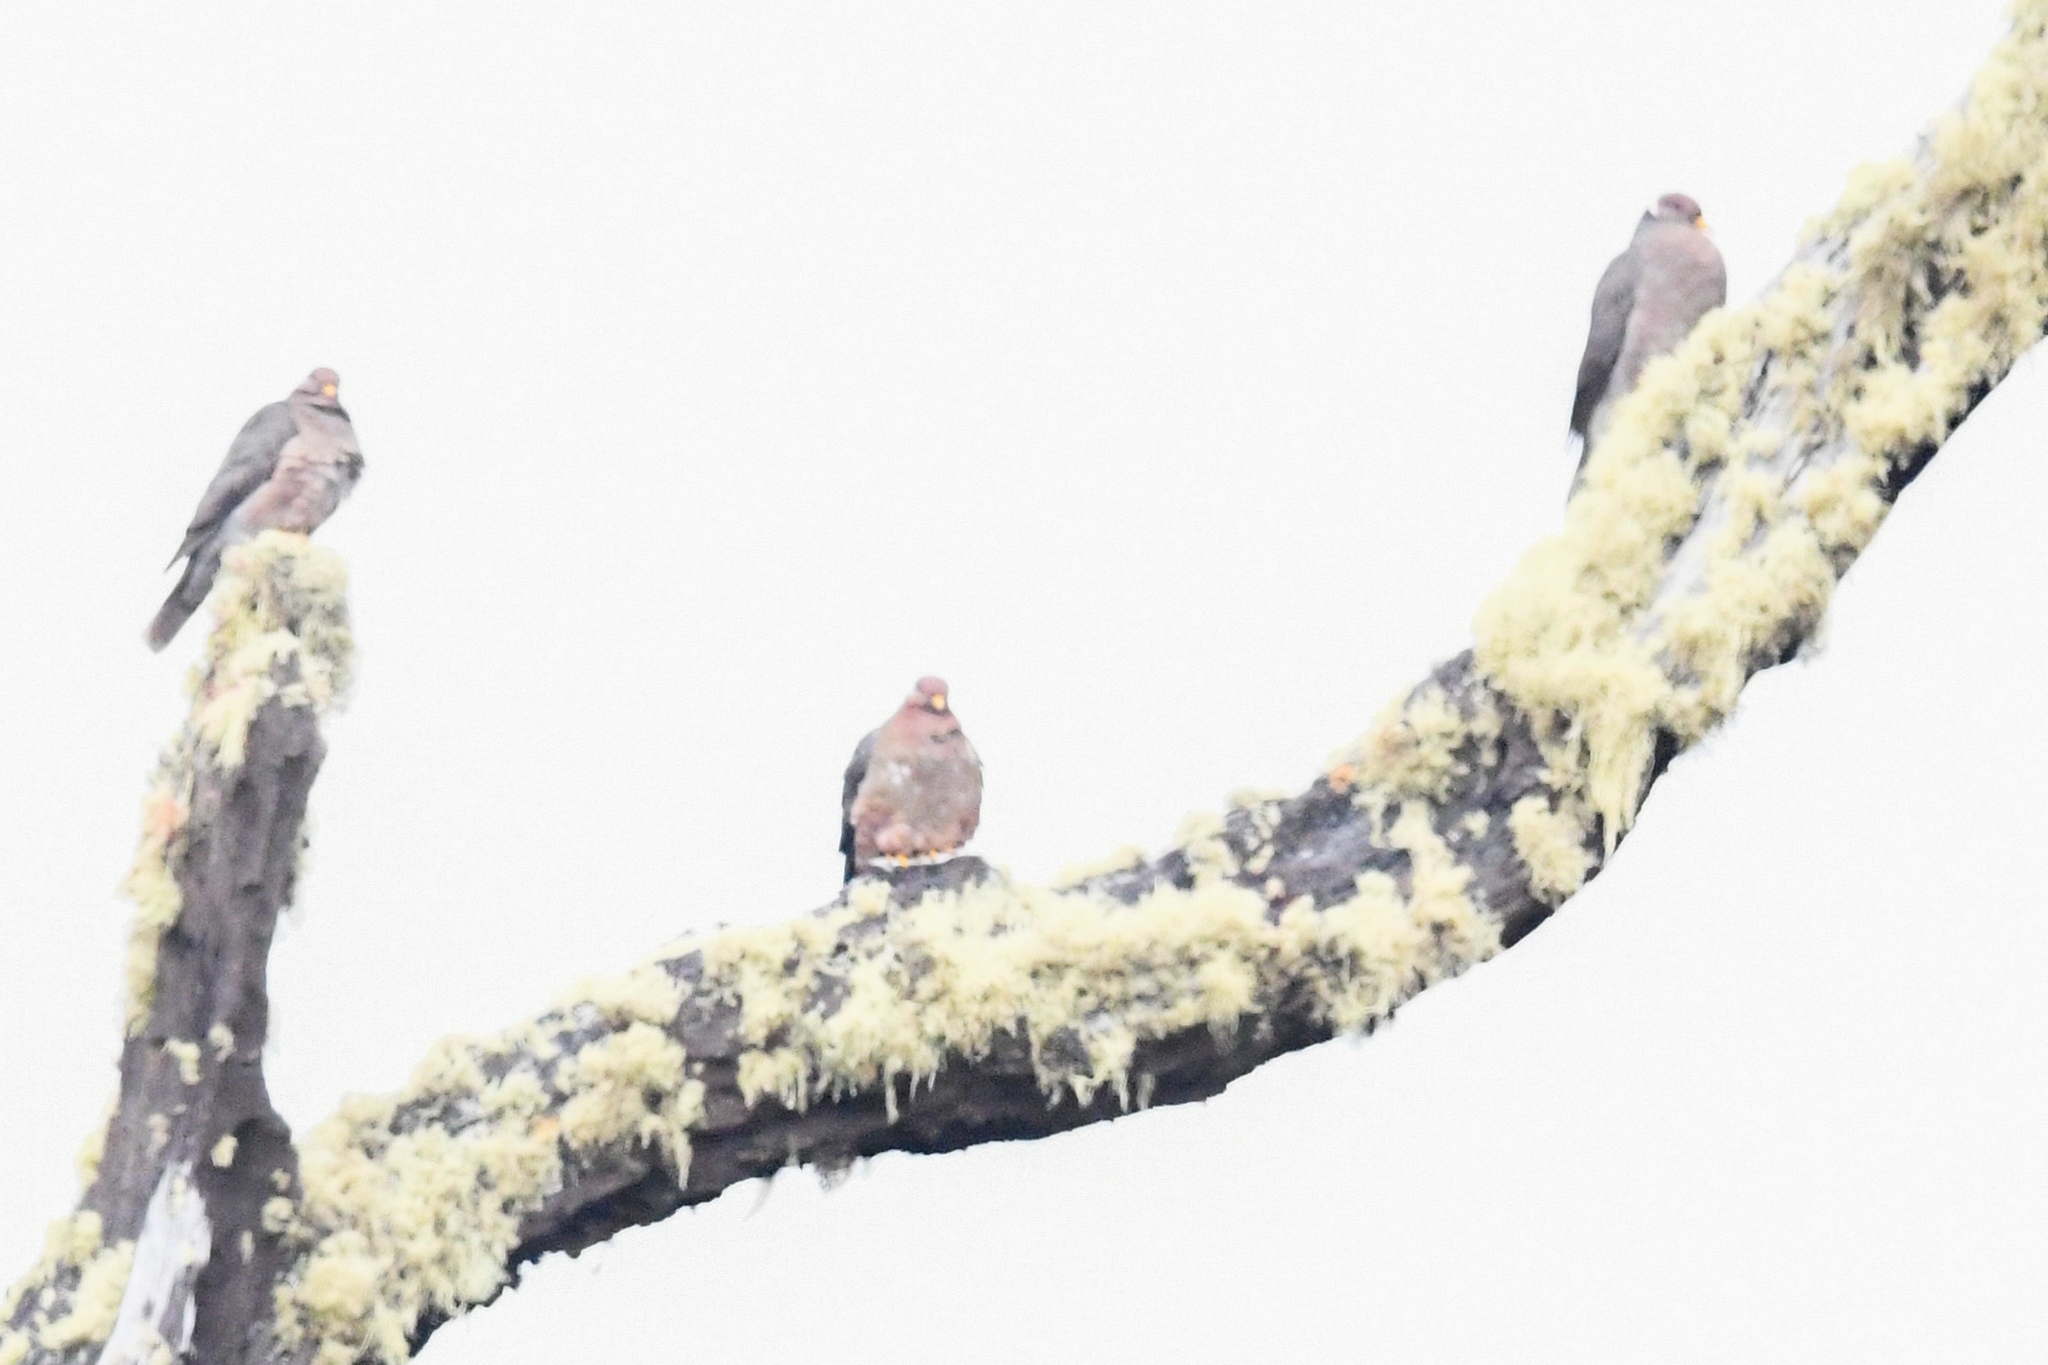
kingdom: Animalia
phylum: Chordata
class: Aves
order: Columbiformes
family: Columbidae
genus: Patagioenas
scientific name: Patagioenas fasciata
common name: Band-tailed pigeon
